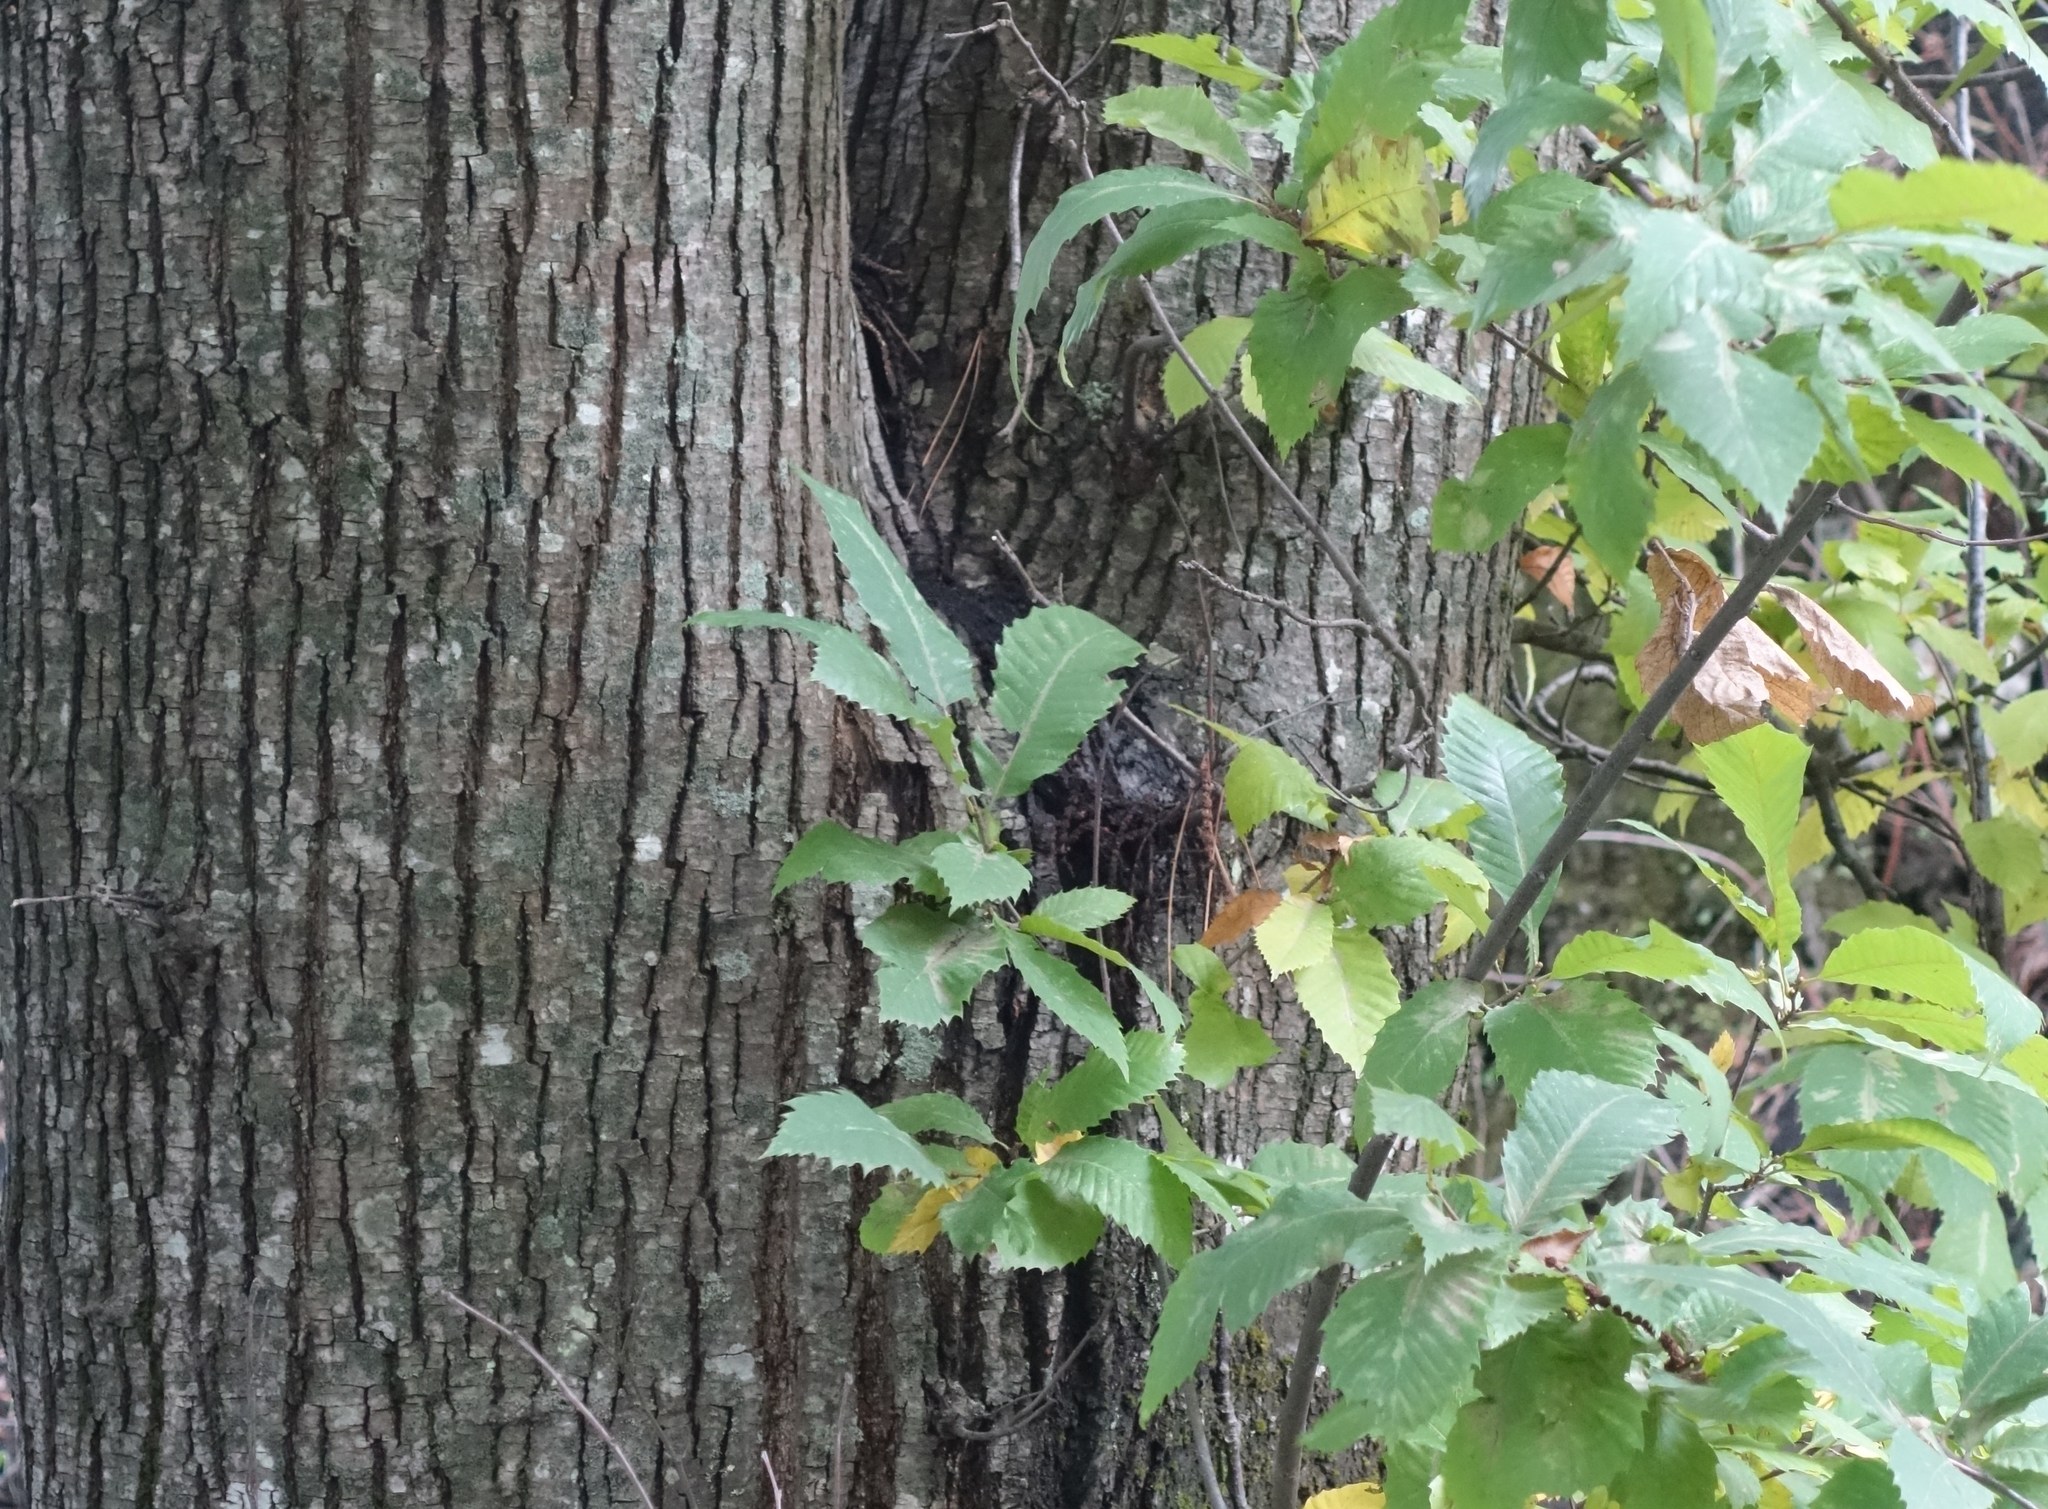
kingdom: Plantae
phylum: Tracheophyta
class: Magnoliopsida
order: Fagales
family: Fagaceae
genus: Castanea
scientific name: Castanea sativa
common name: Sweet chestnut
